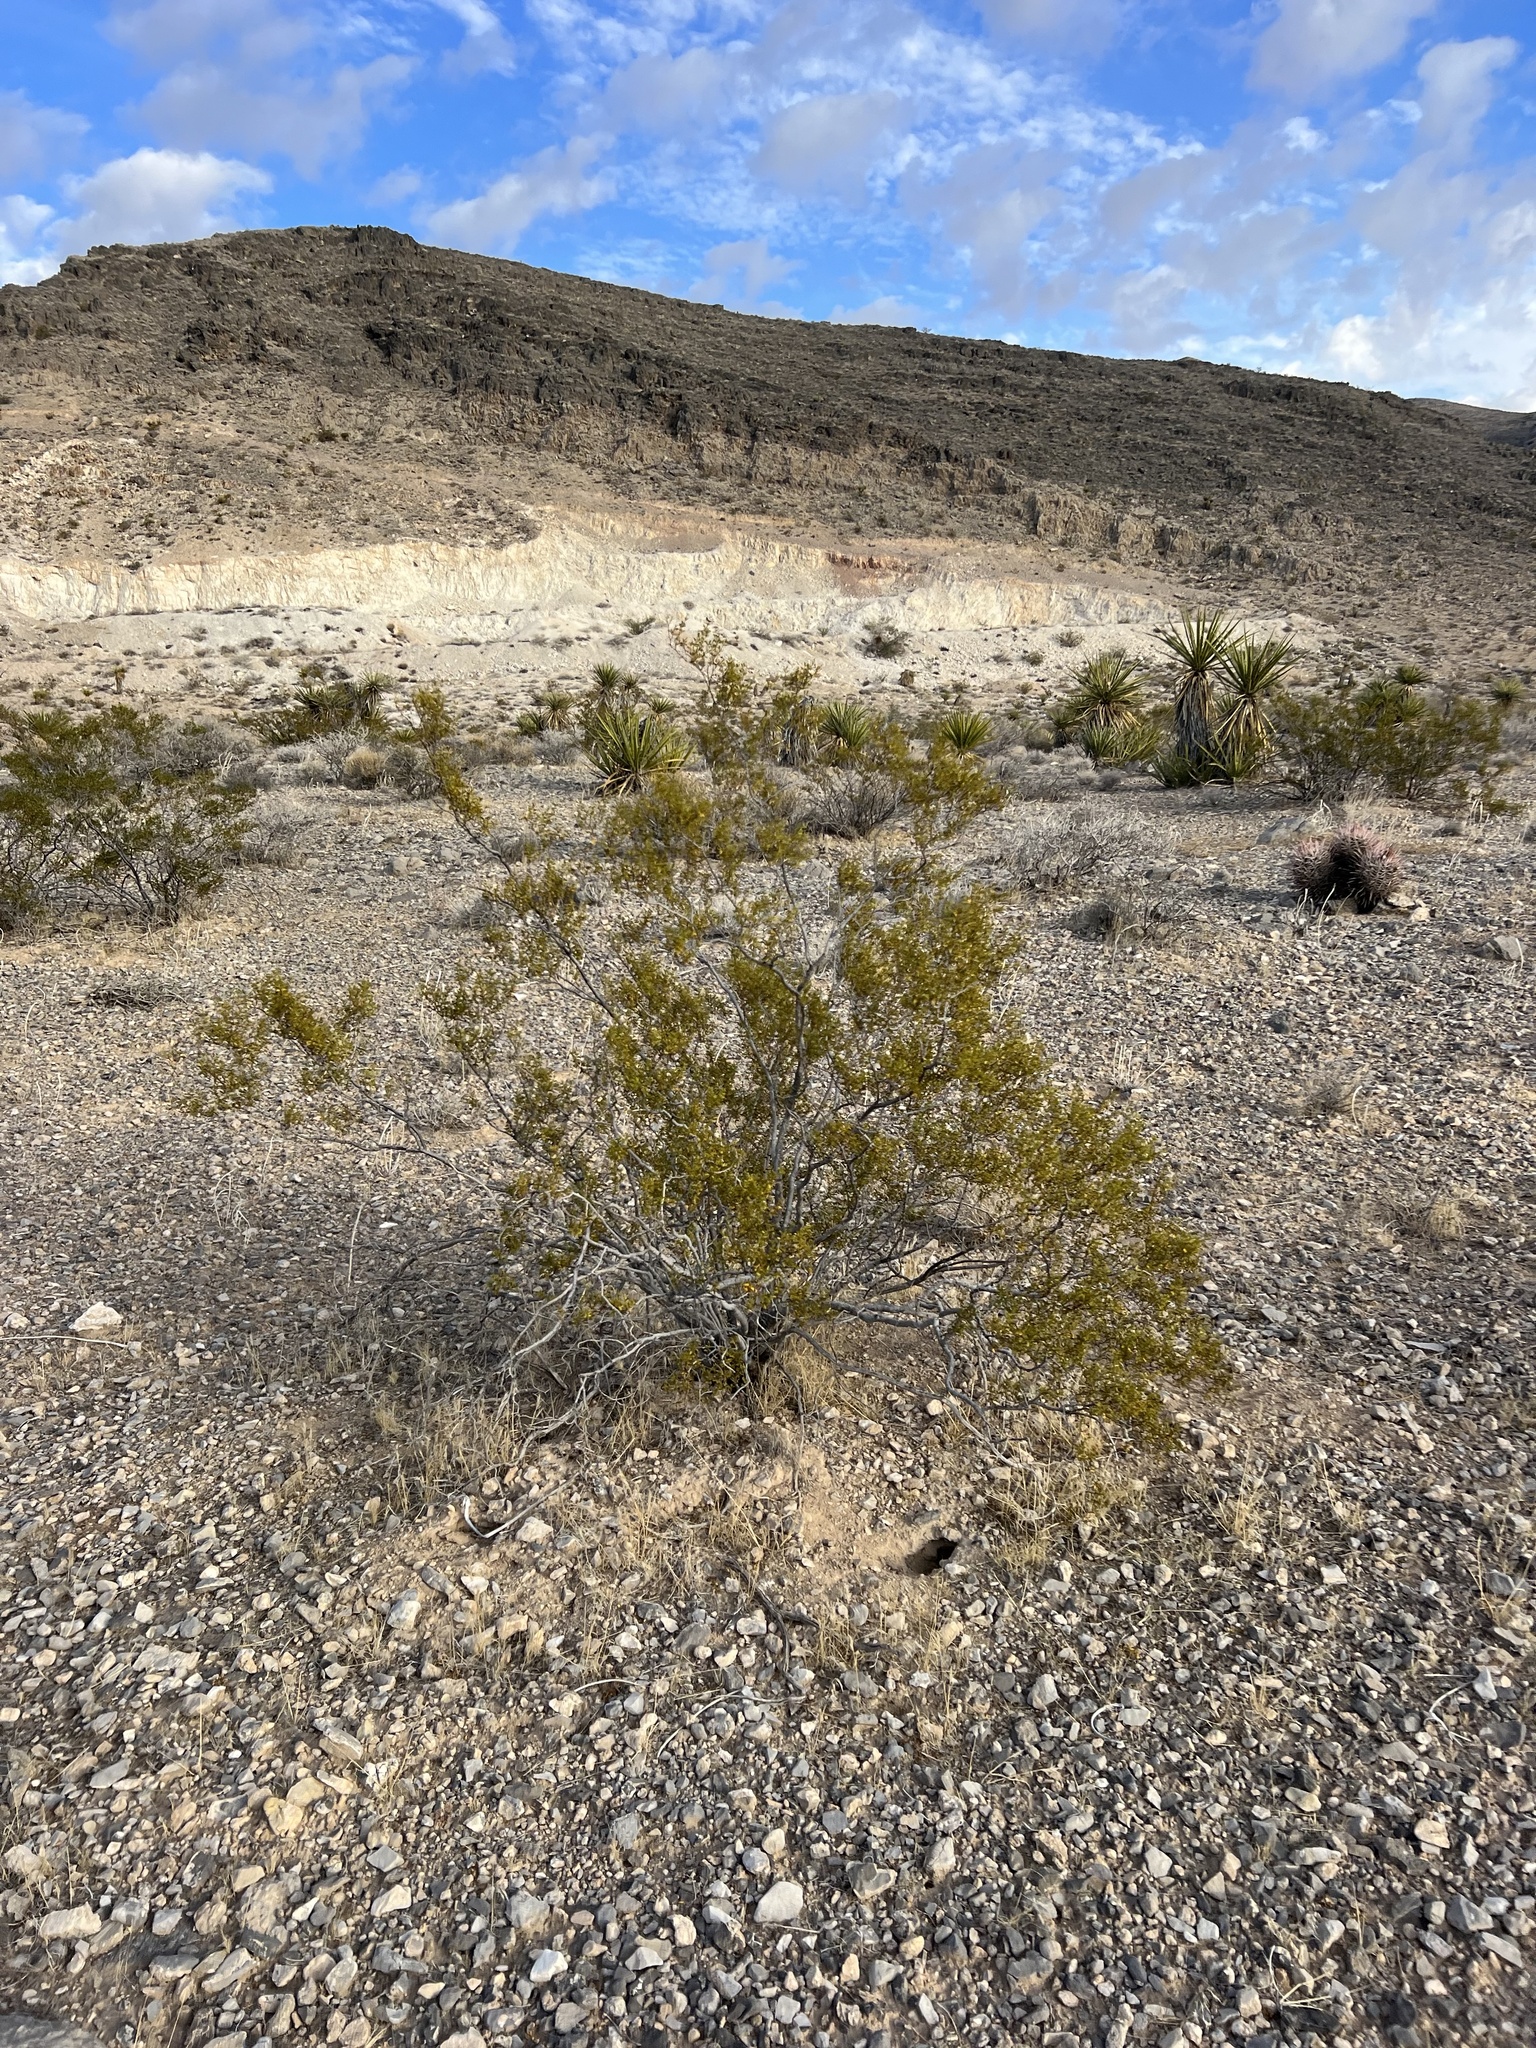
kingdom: Plantae
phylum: Tracheophyta
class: Magnoliopsida
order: Zygophyllales
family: Zygophyllaceae
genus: Larrea
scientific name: Larrea tridentata
